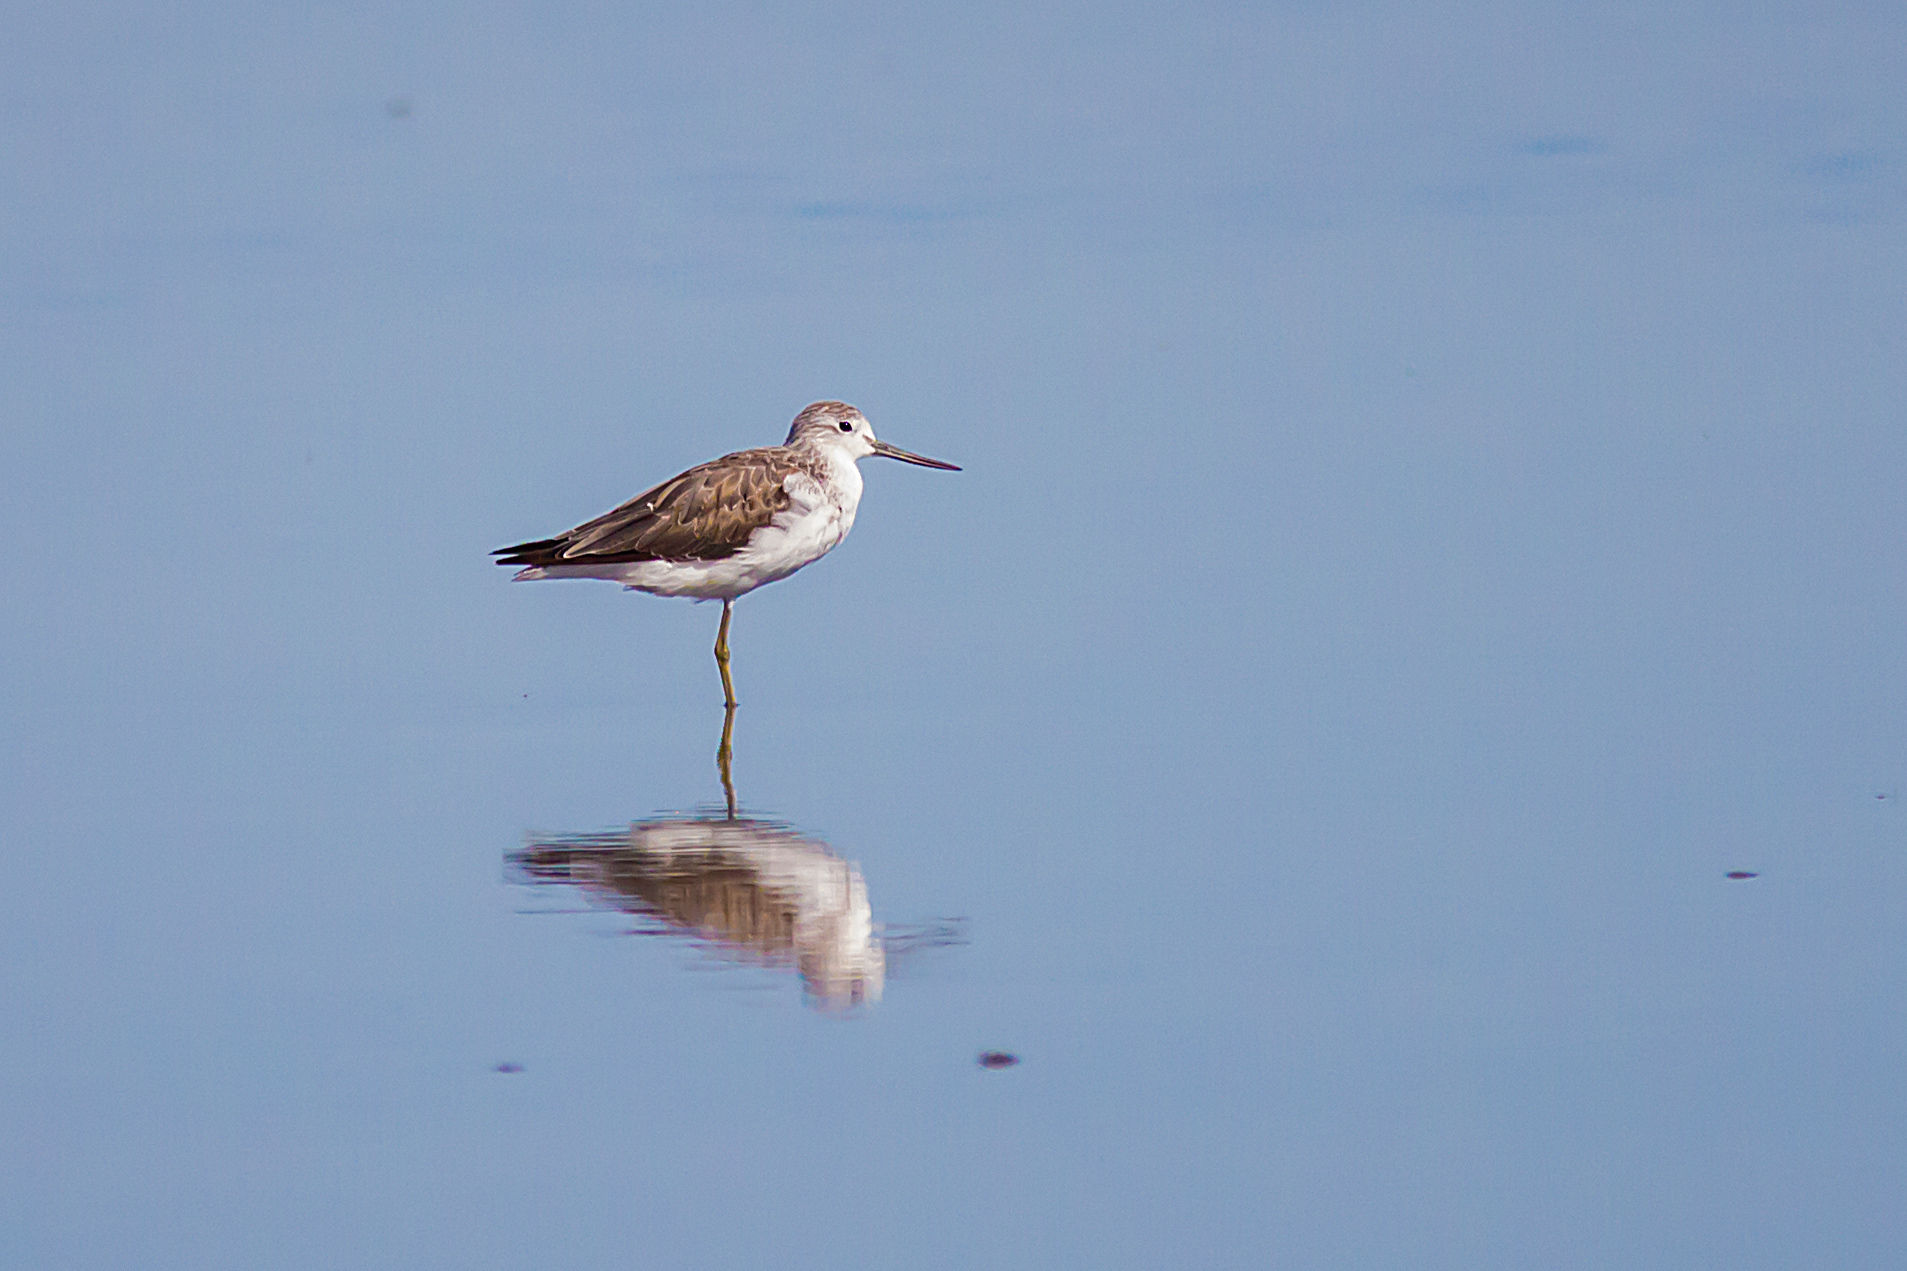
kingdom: Animalia
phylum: Chordata
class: Aves
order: Charadriiformes
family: Scolopacidae
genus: Tringa
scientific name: Tringa nebularia
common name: Common greenshank
